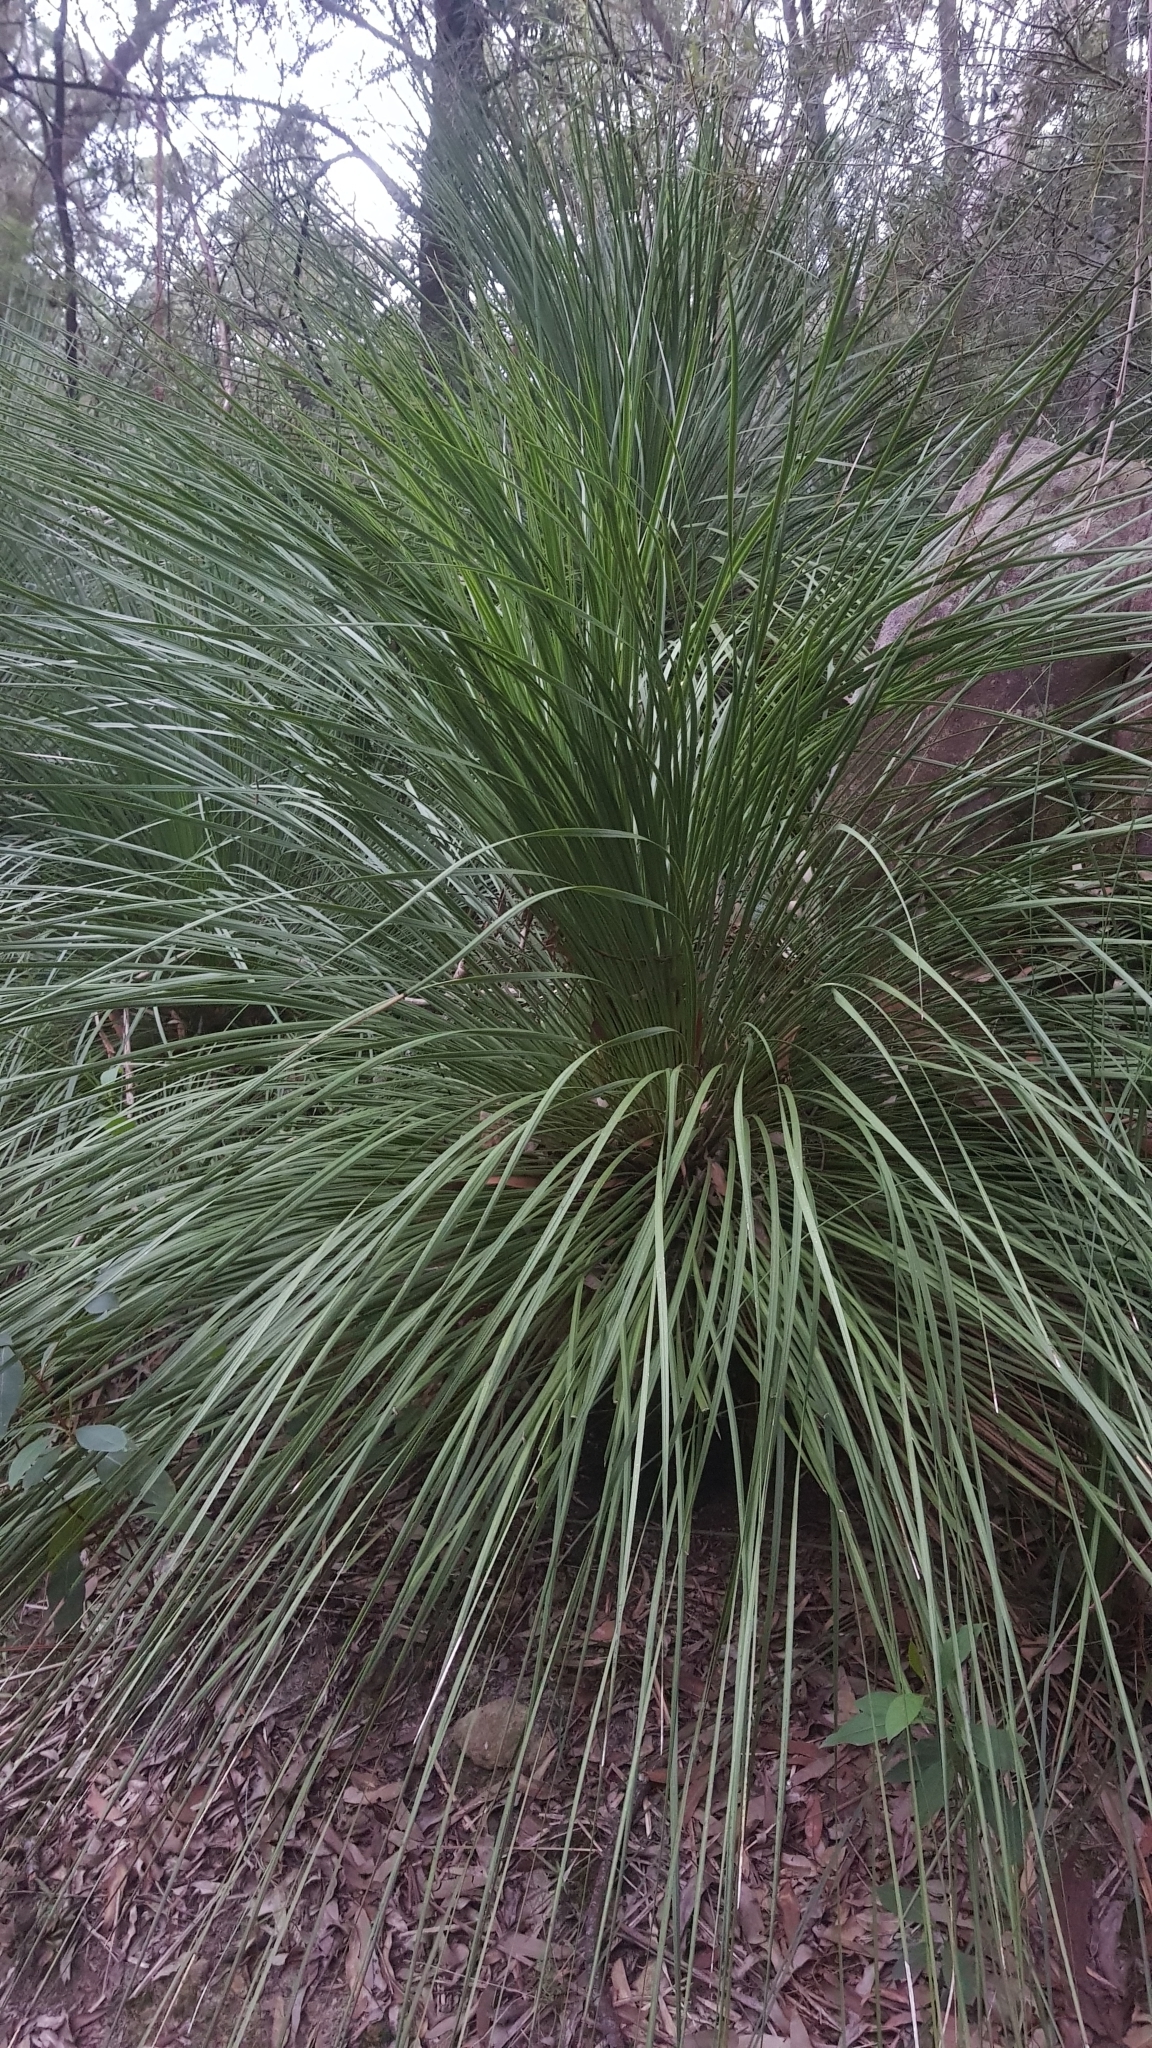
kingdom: Plantae
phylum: Tracheophyta
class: Liliopsida
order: Asparagales
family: Asphodelaceae
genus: Xanthorrhoea
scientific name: Xanthorrhoea arborea
